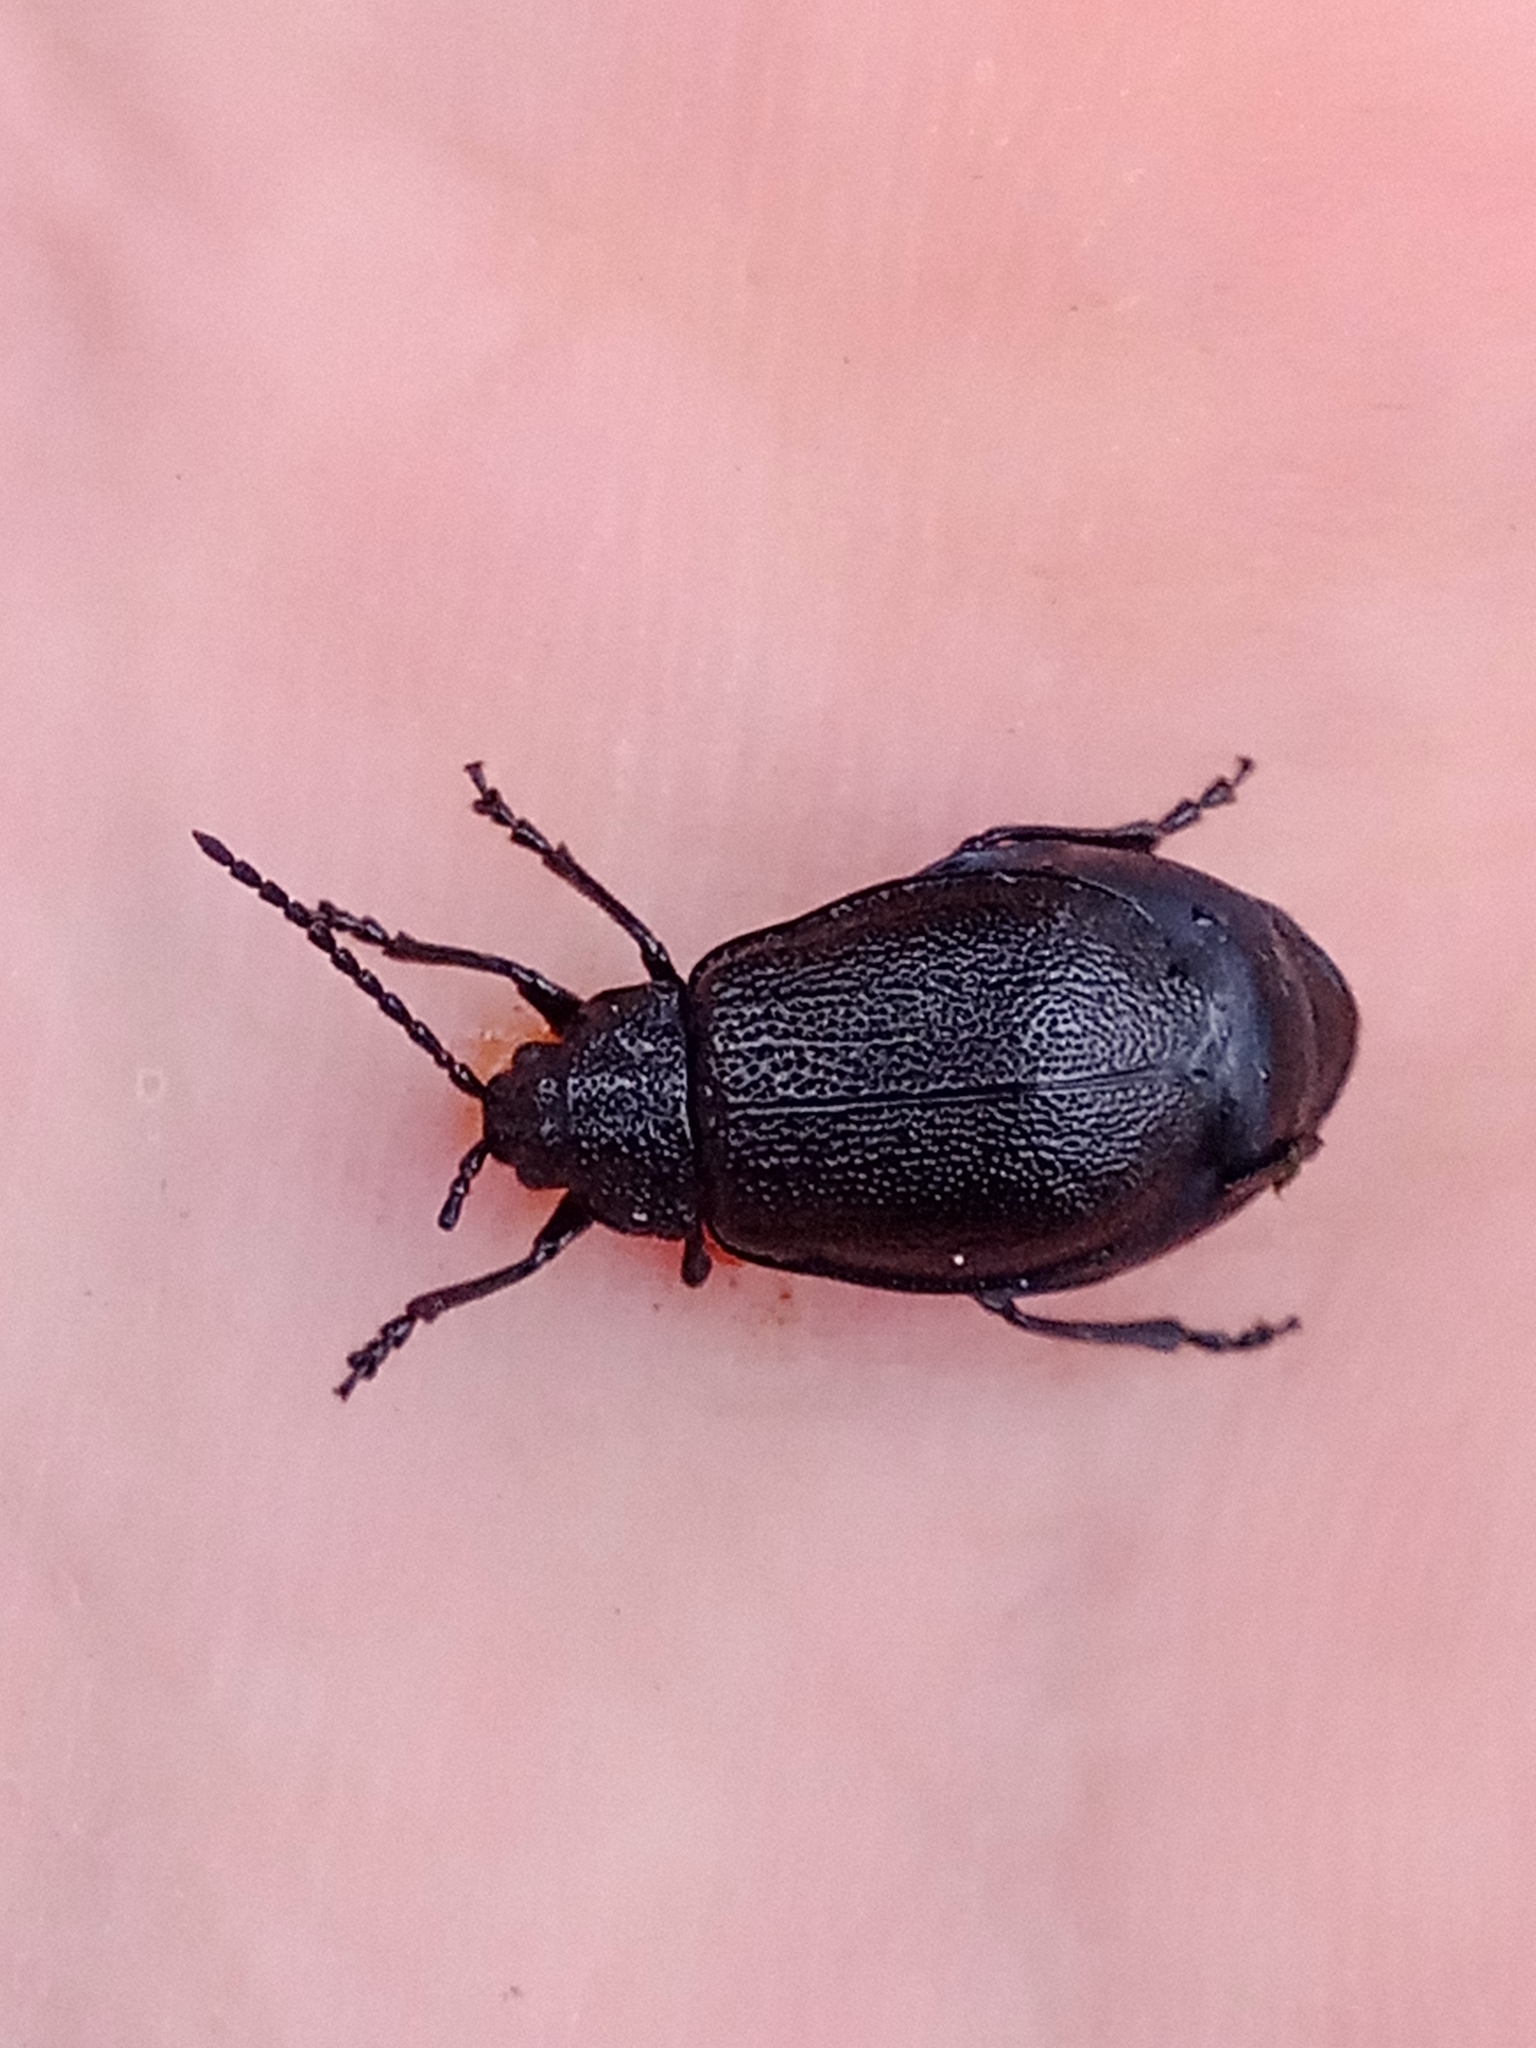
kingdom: Animalia
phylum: Arthropoda
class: Insecta
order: Coleoptera
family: Chrysomelidae
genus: Galeruca
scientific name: Galeruca tanaceti
